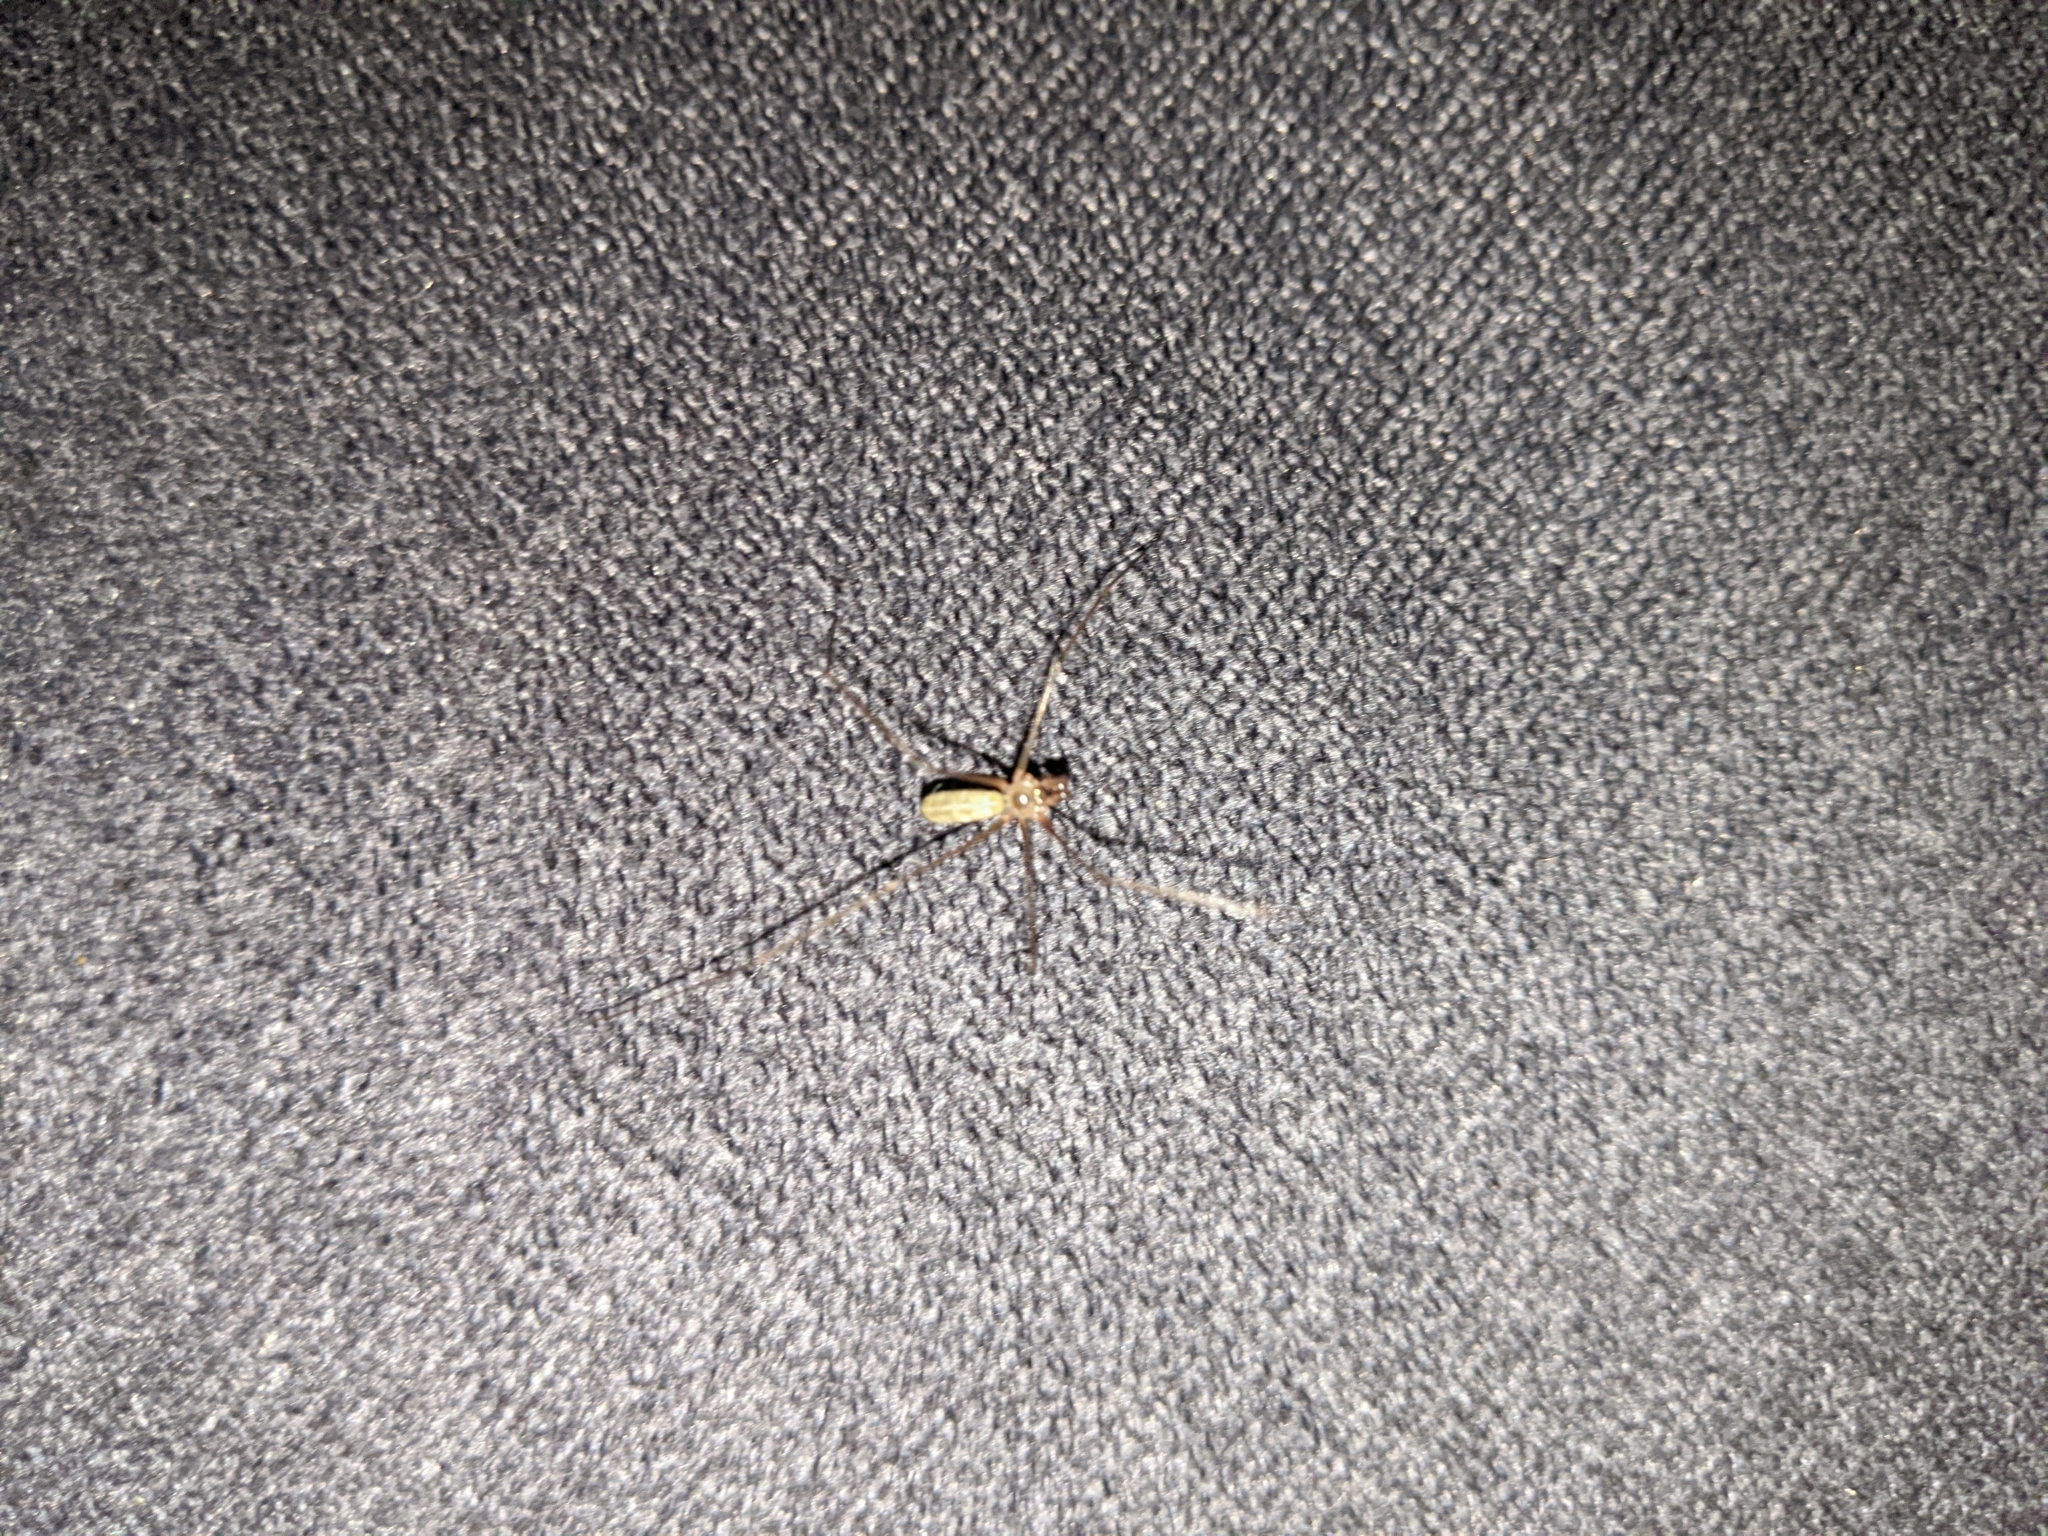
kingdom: Animalia
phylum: Arthropoda
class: Arachnida
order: Araneae
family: Pholcidae
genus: Pholcus
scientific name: Pholcus phalangioides
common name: Longbodied cellar spider
